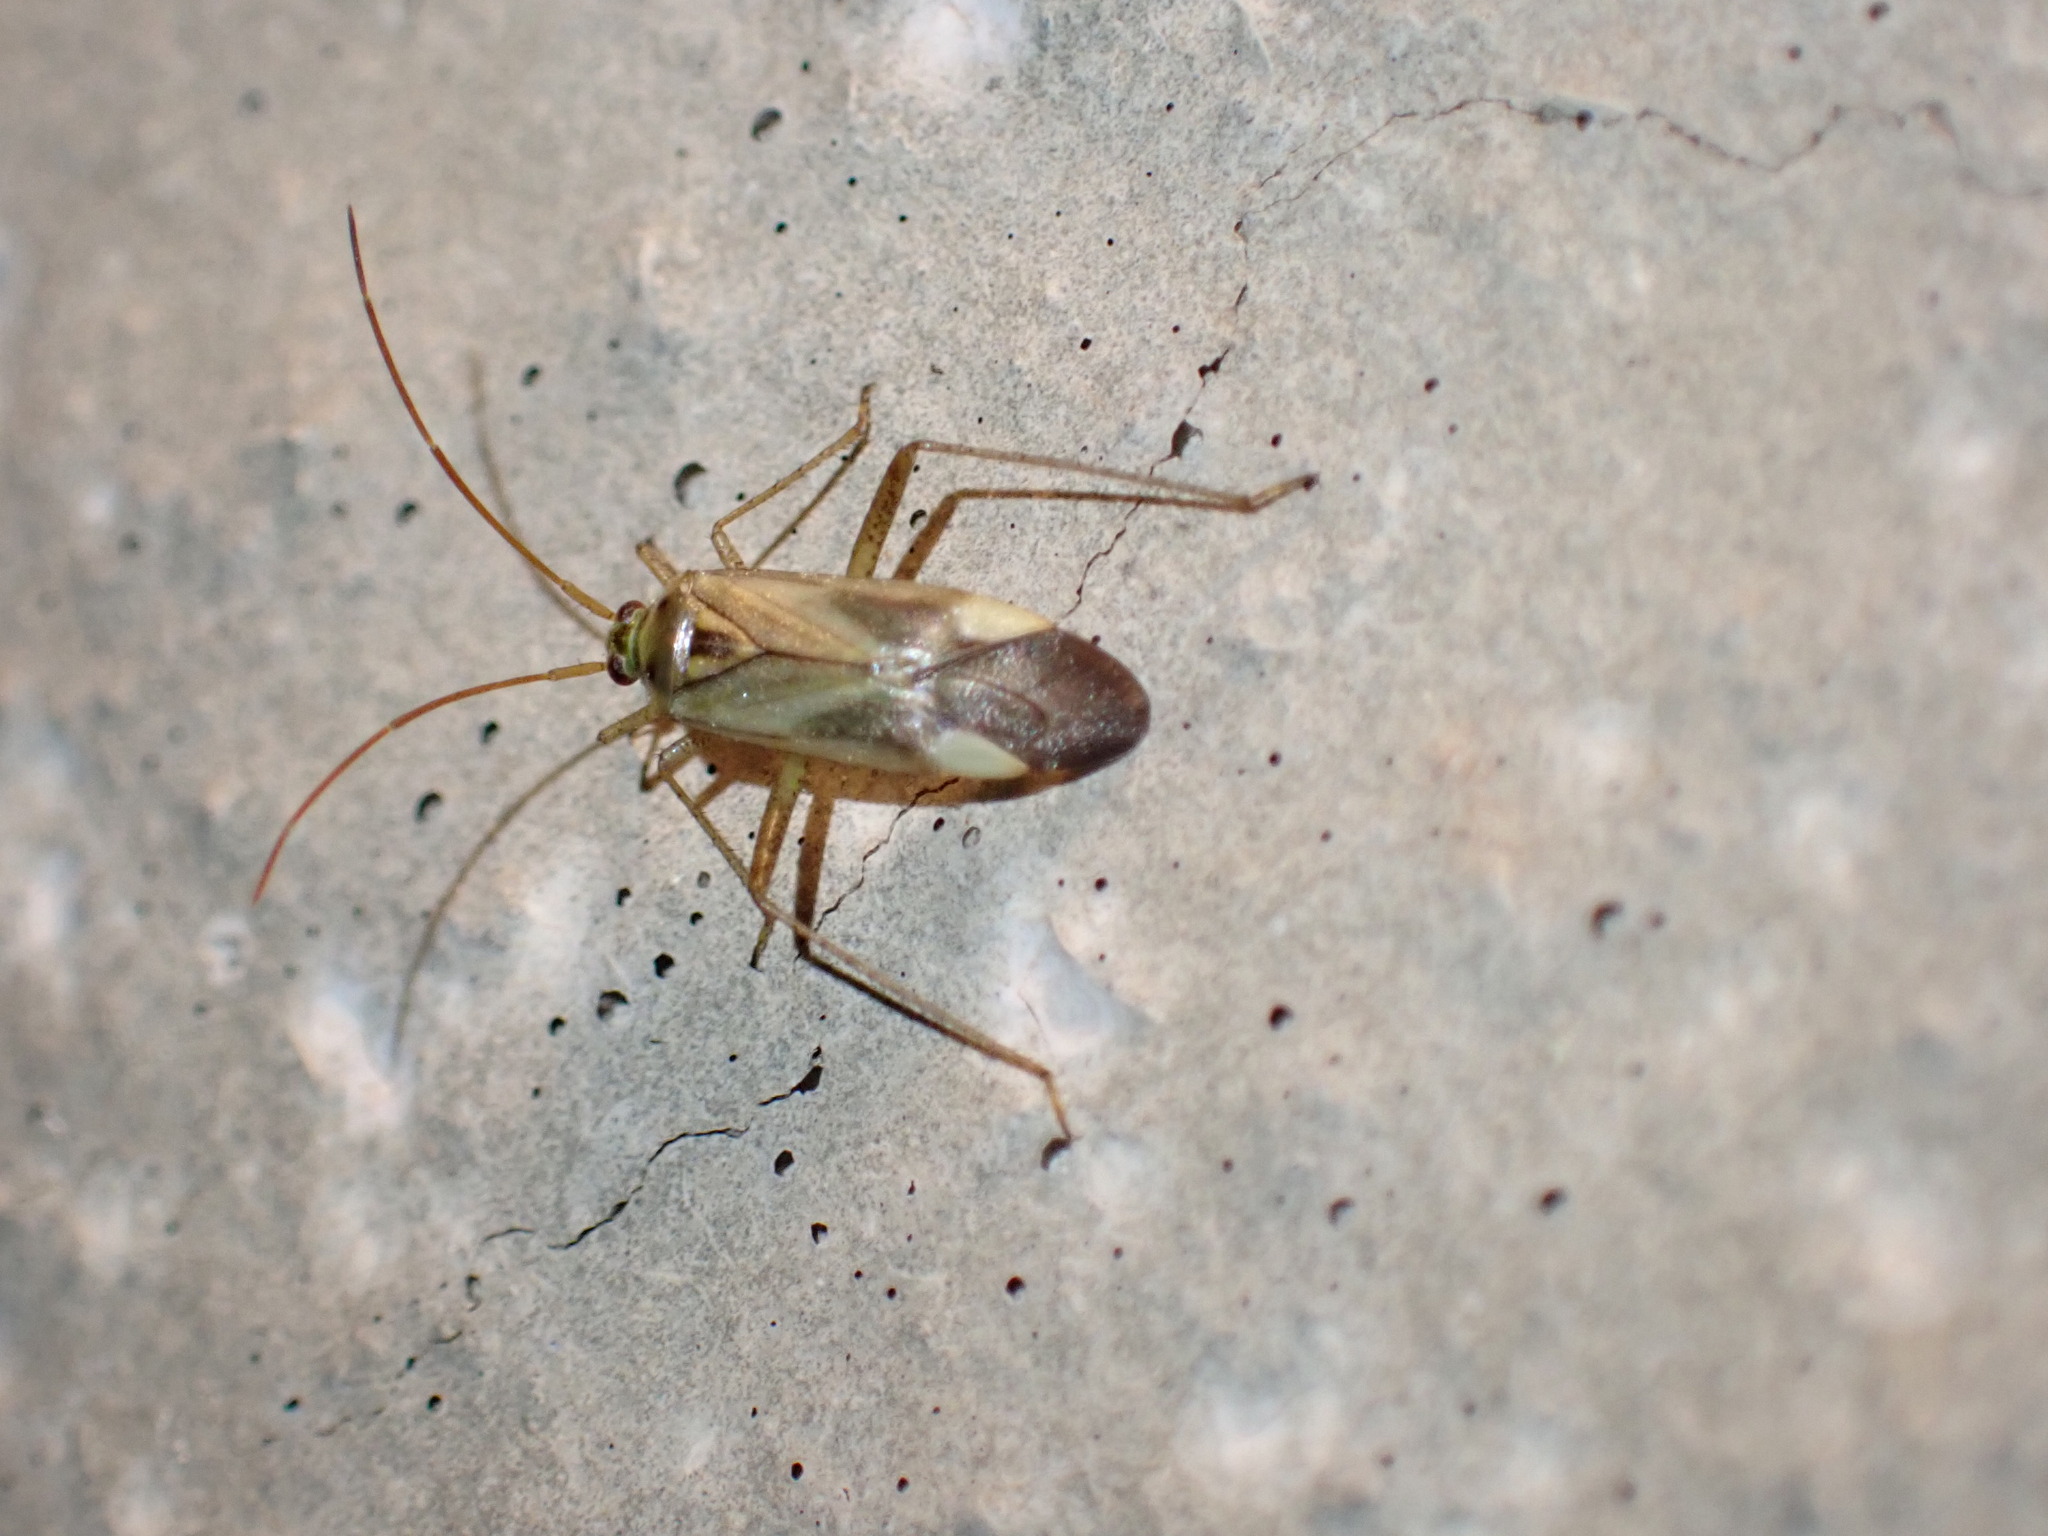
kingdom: Animalia
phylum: Arthropoda
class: Insecta
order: Hemiptera
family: Miridae
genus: Adelphocoris
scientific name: Adelphocoris lineolatus
